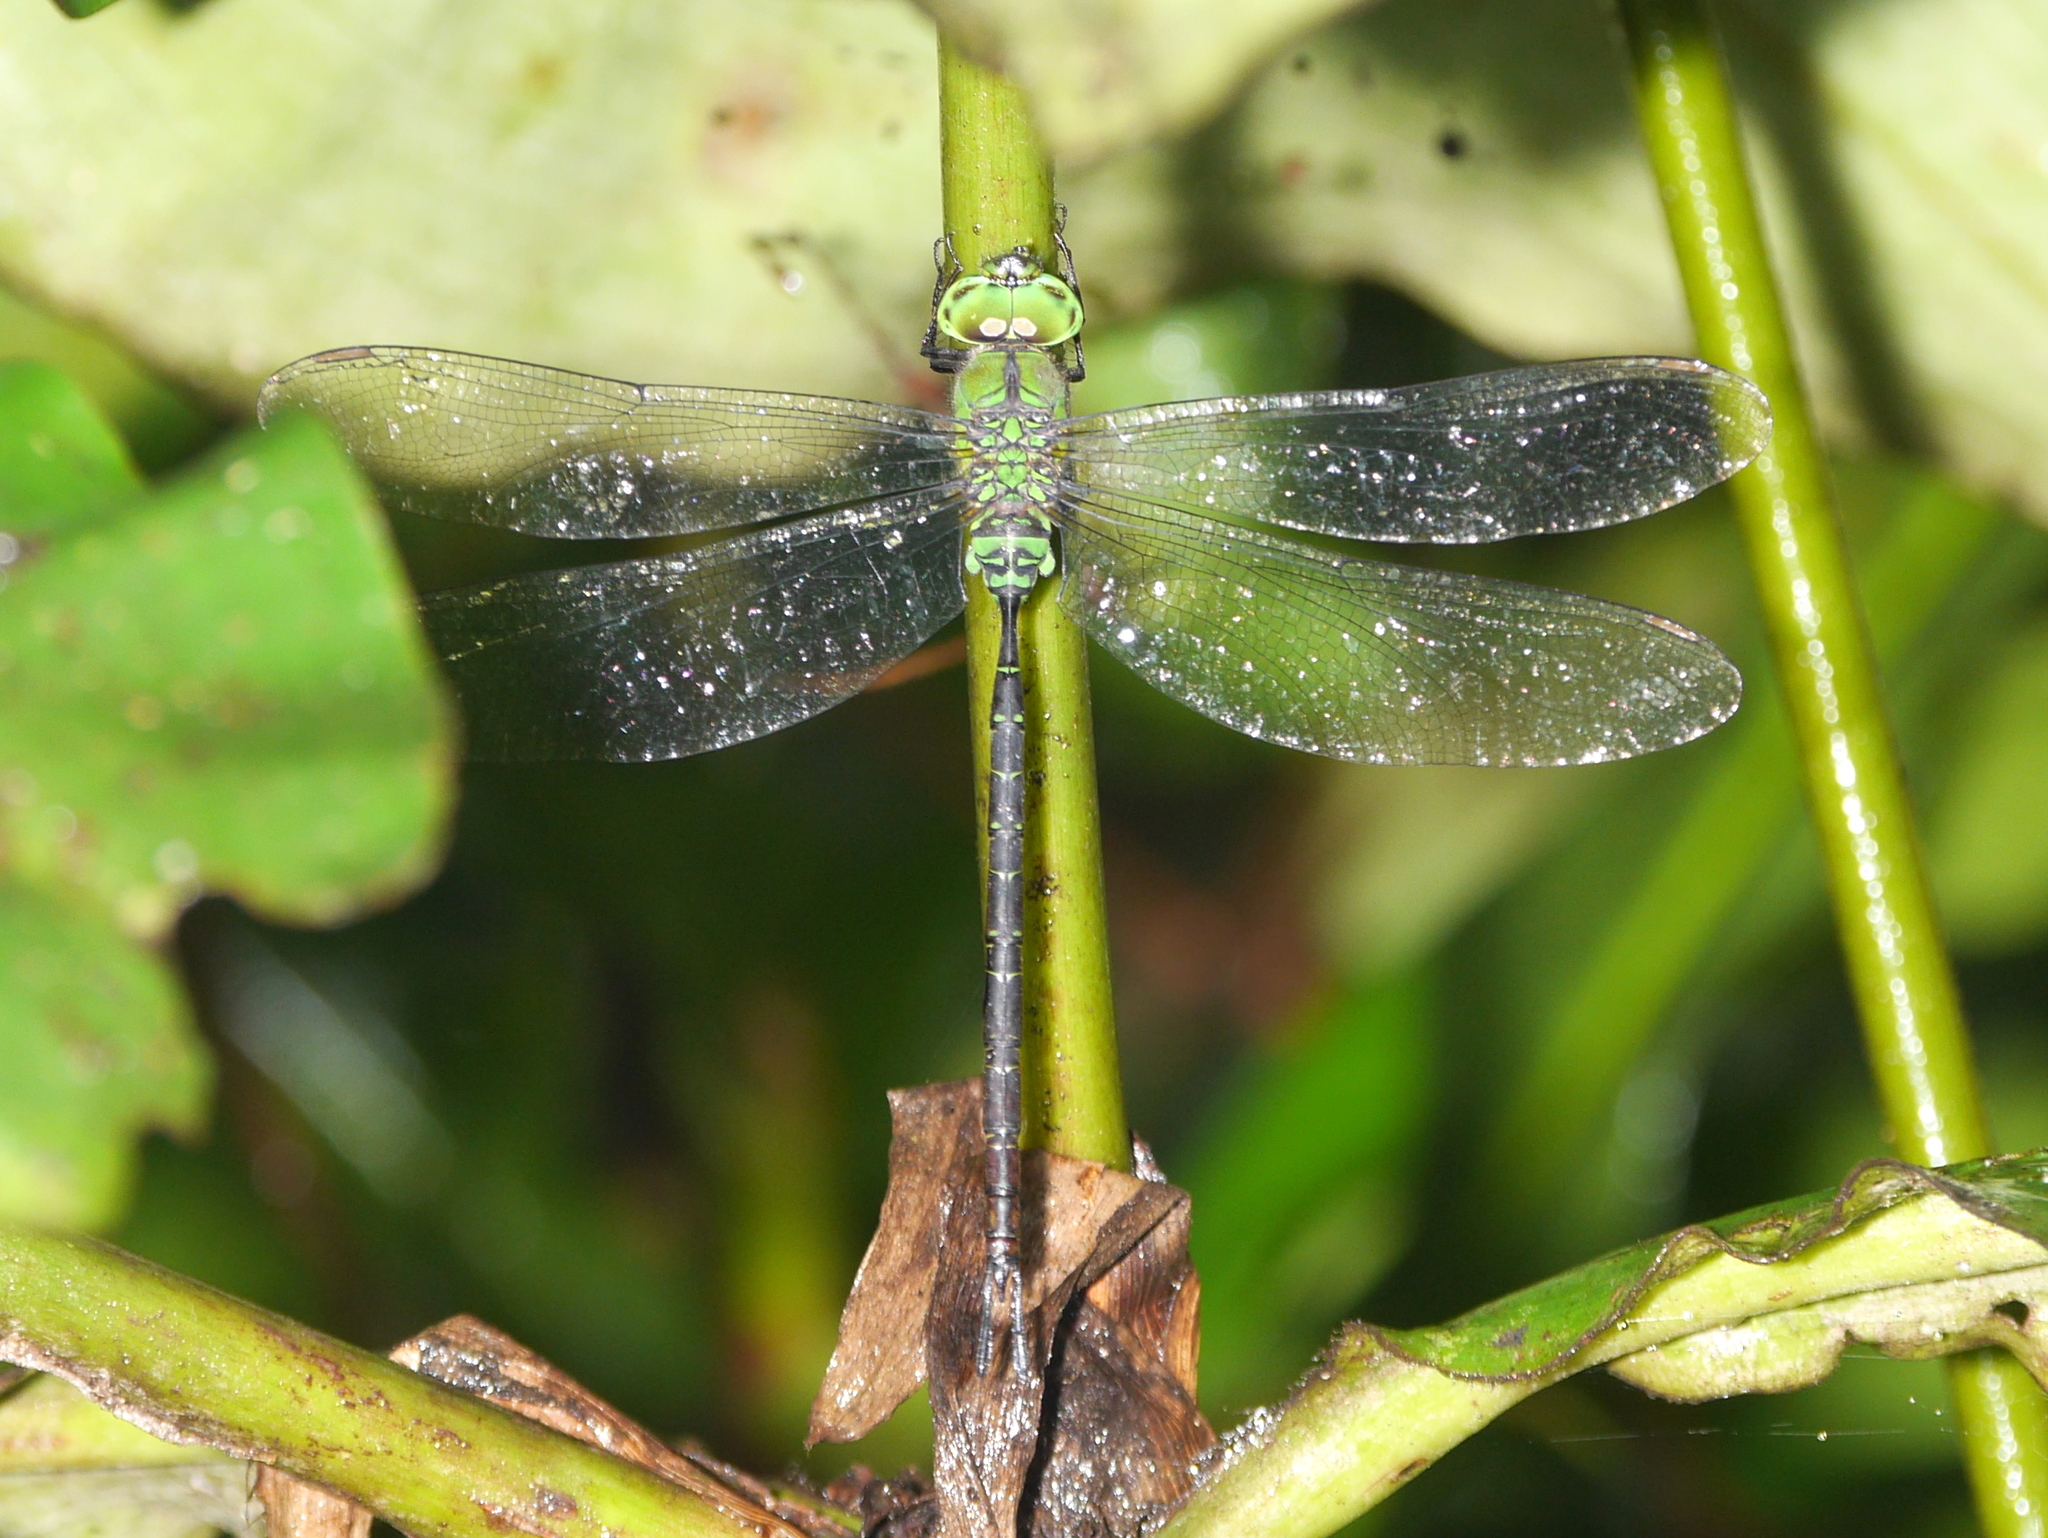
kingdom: Animalia
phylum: Arthropoda
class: Insecta
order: Odonata
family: Aeshnidae
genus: Gynacantha
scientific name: Gynacantha bullata
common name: Black-kneed dusk-hawker
